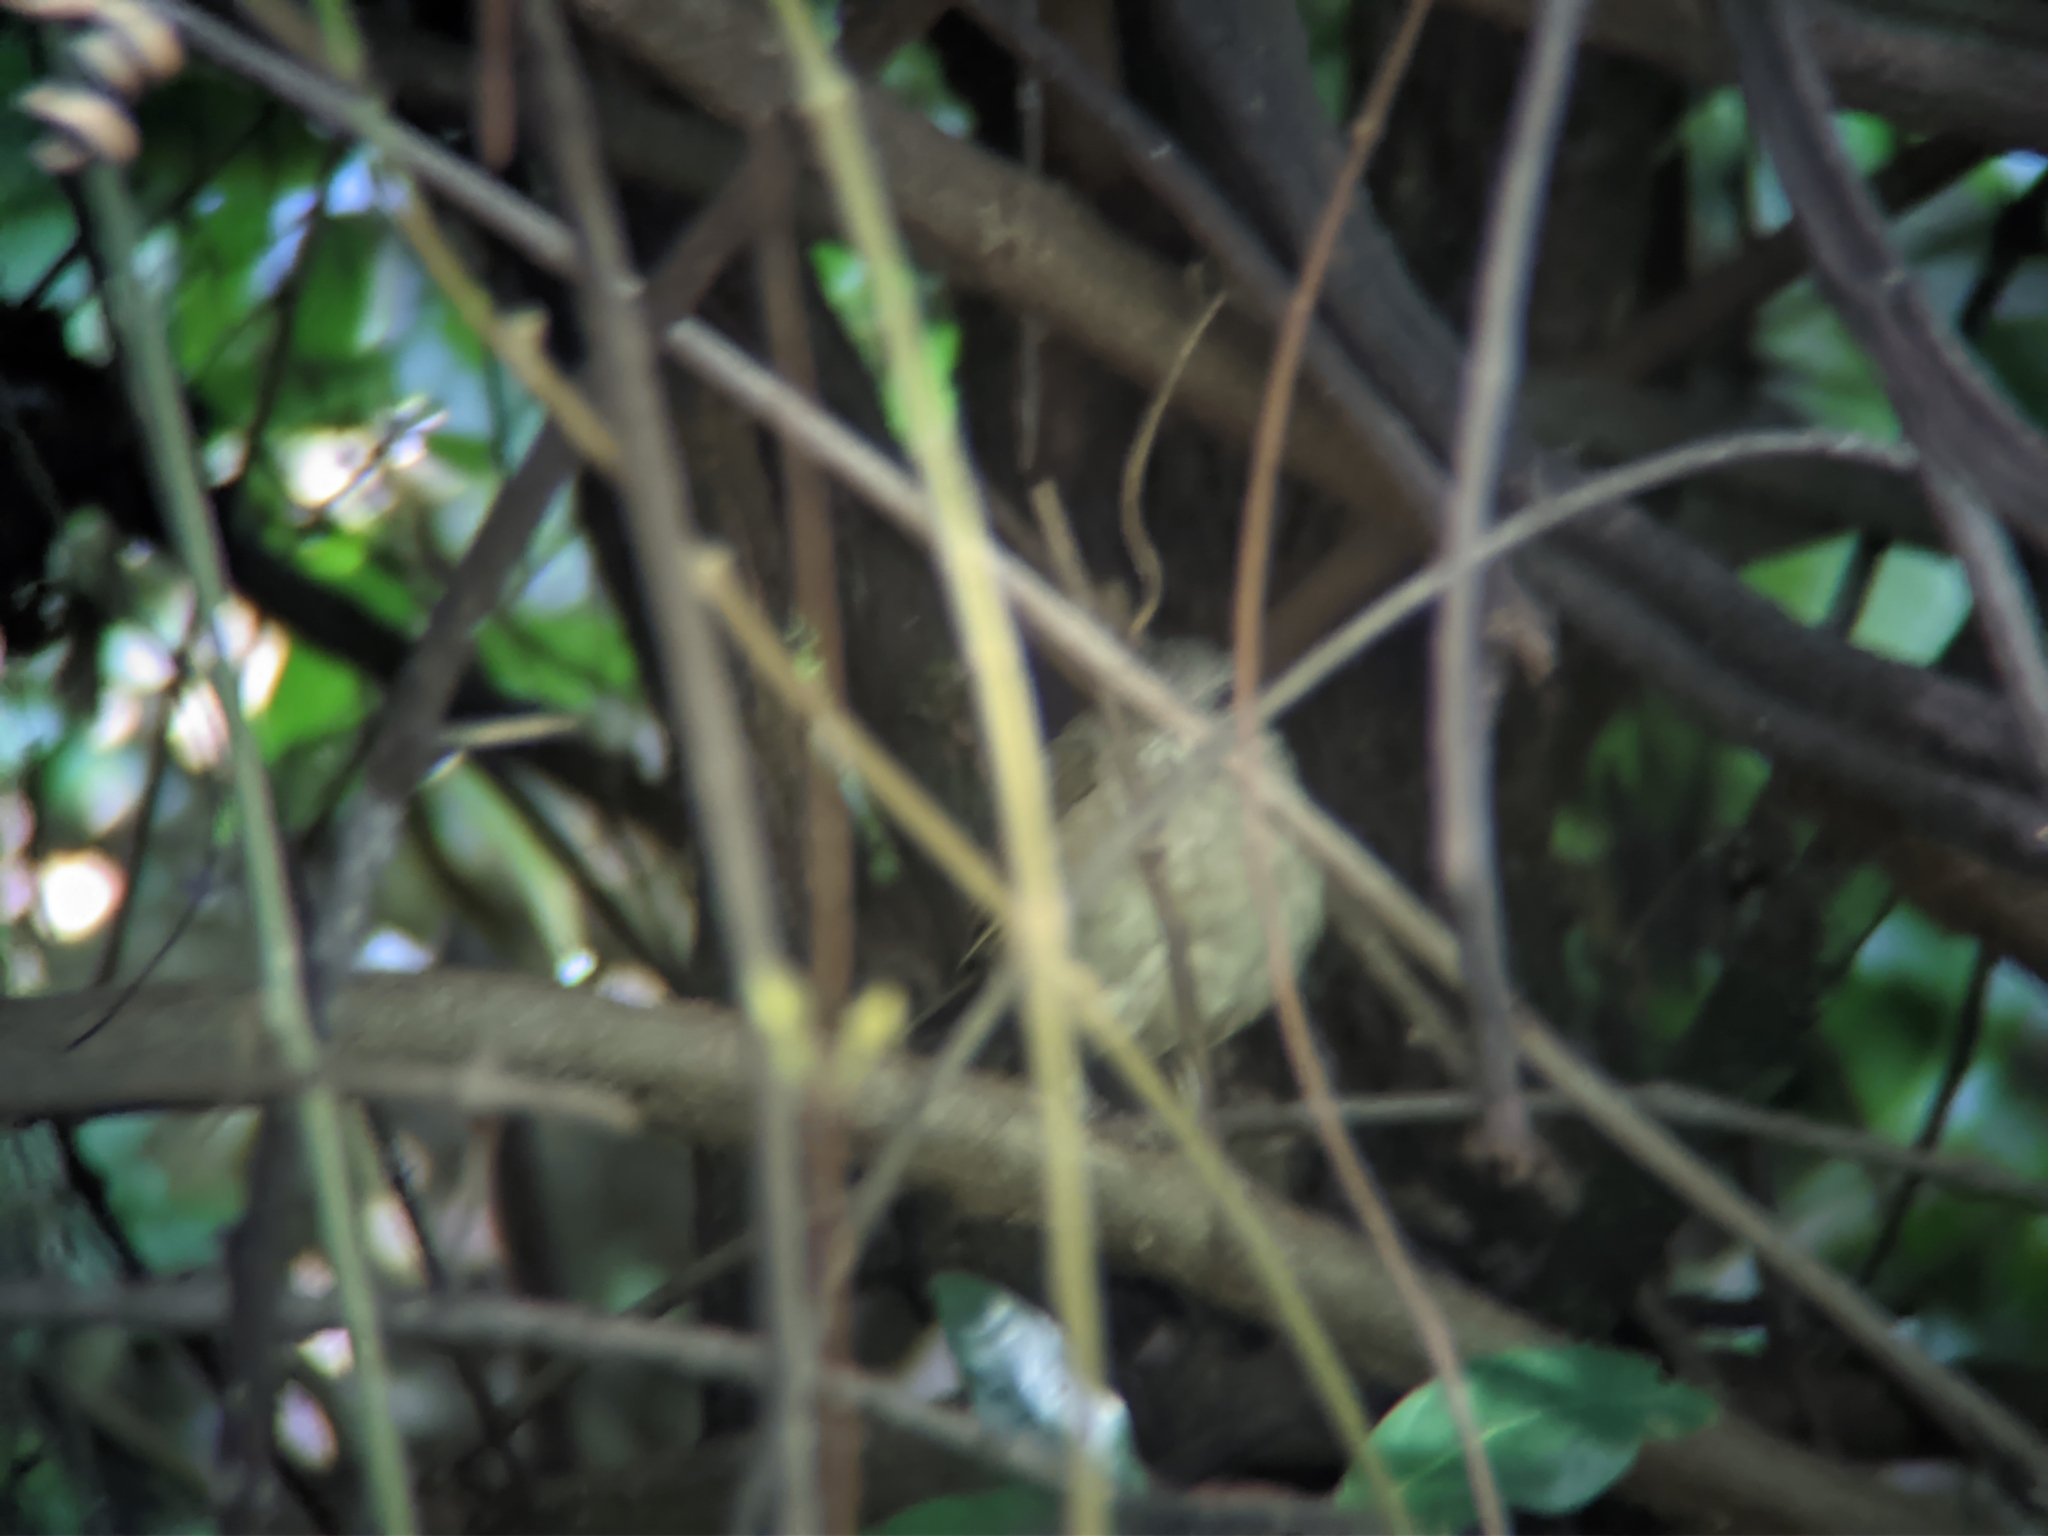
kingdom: Animalia
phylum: Chordata
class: Aves
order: Passeriformes
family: Turdidae
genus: Turdus
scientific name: Turdus leucomelas
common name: Pale-breasted thrush
